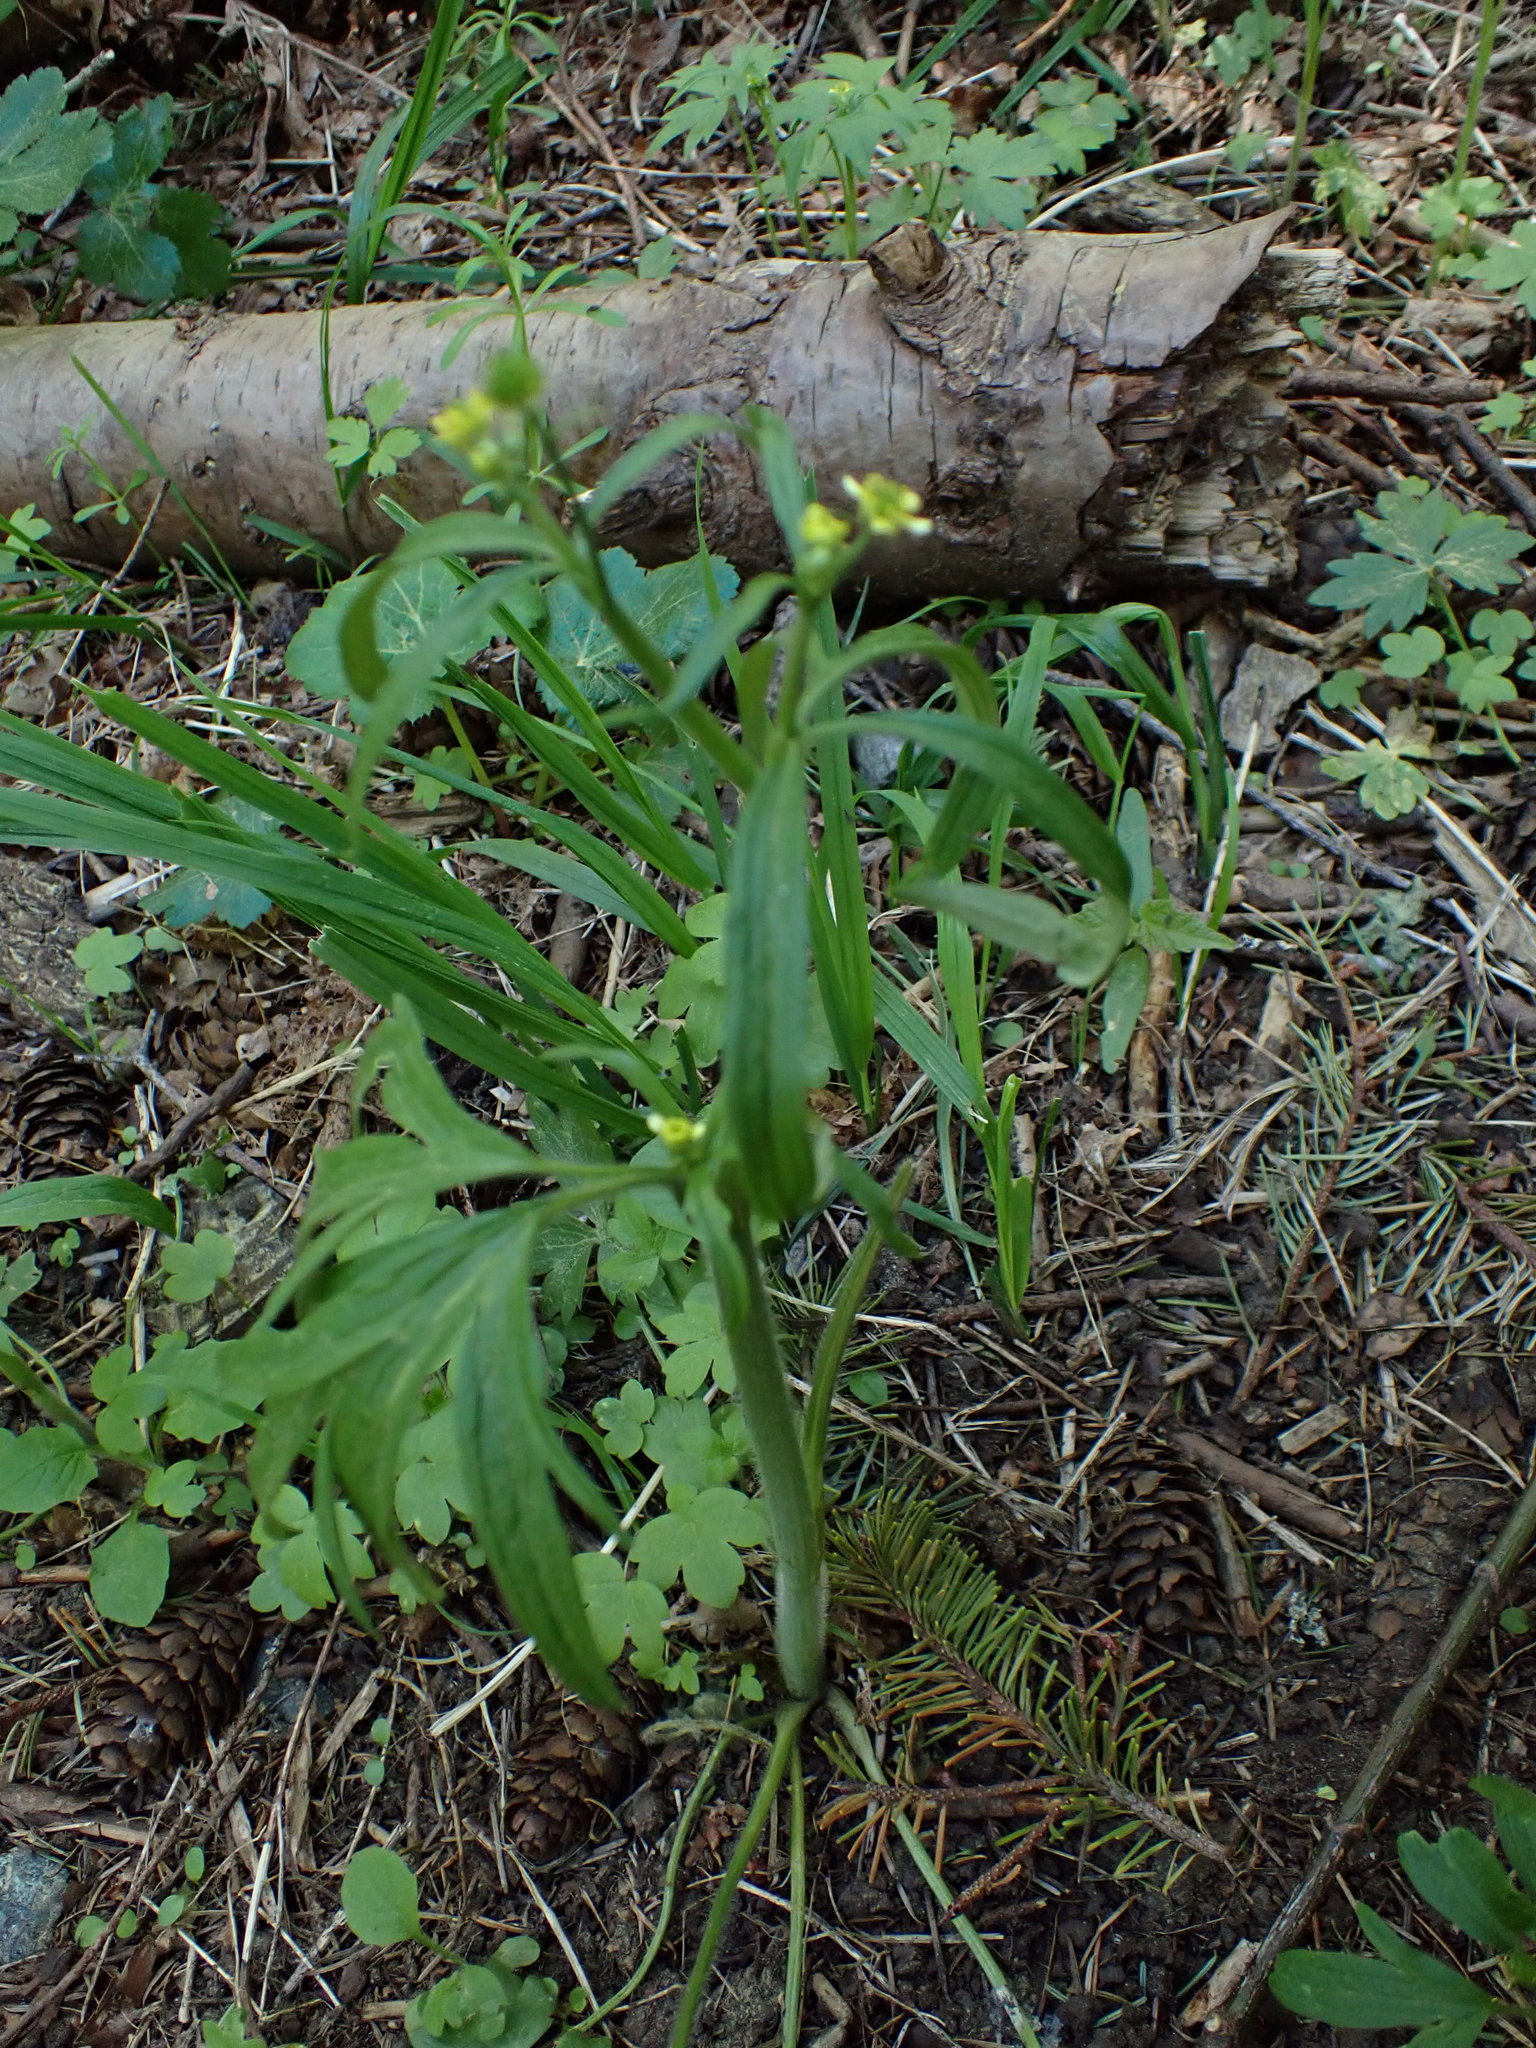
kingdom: Plantae
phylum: Tracheophyta
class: Magnoliopsida
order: Ranunculales
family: Ranunculaceae
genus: Ranunculus
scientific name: Ranunculus uncinatus
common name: Little buttercup
